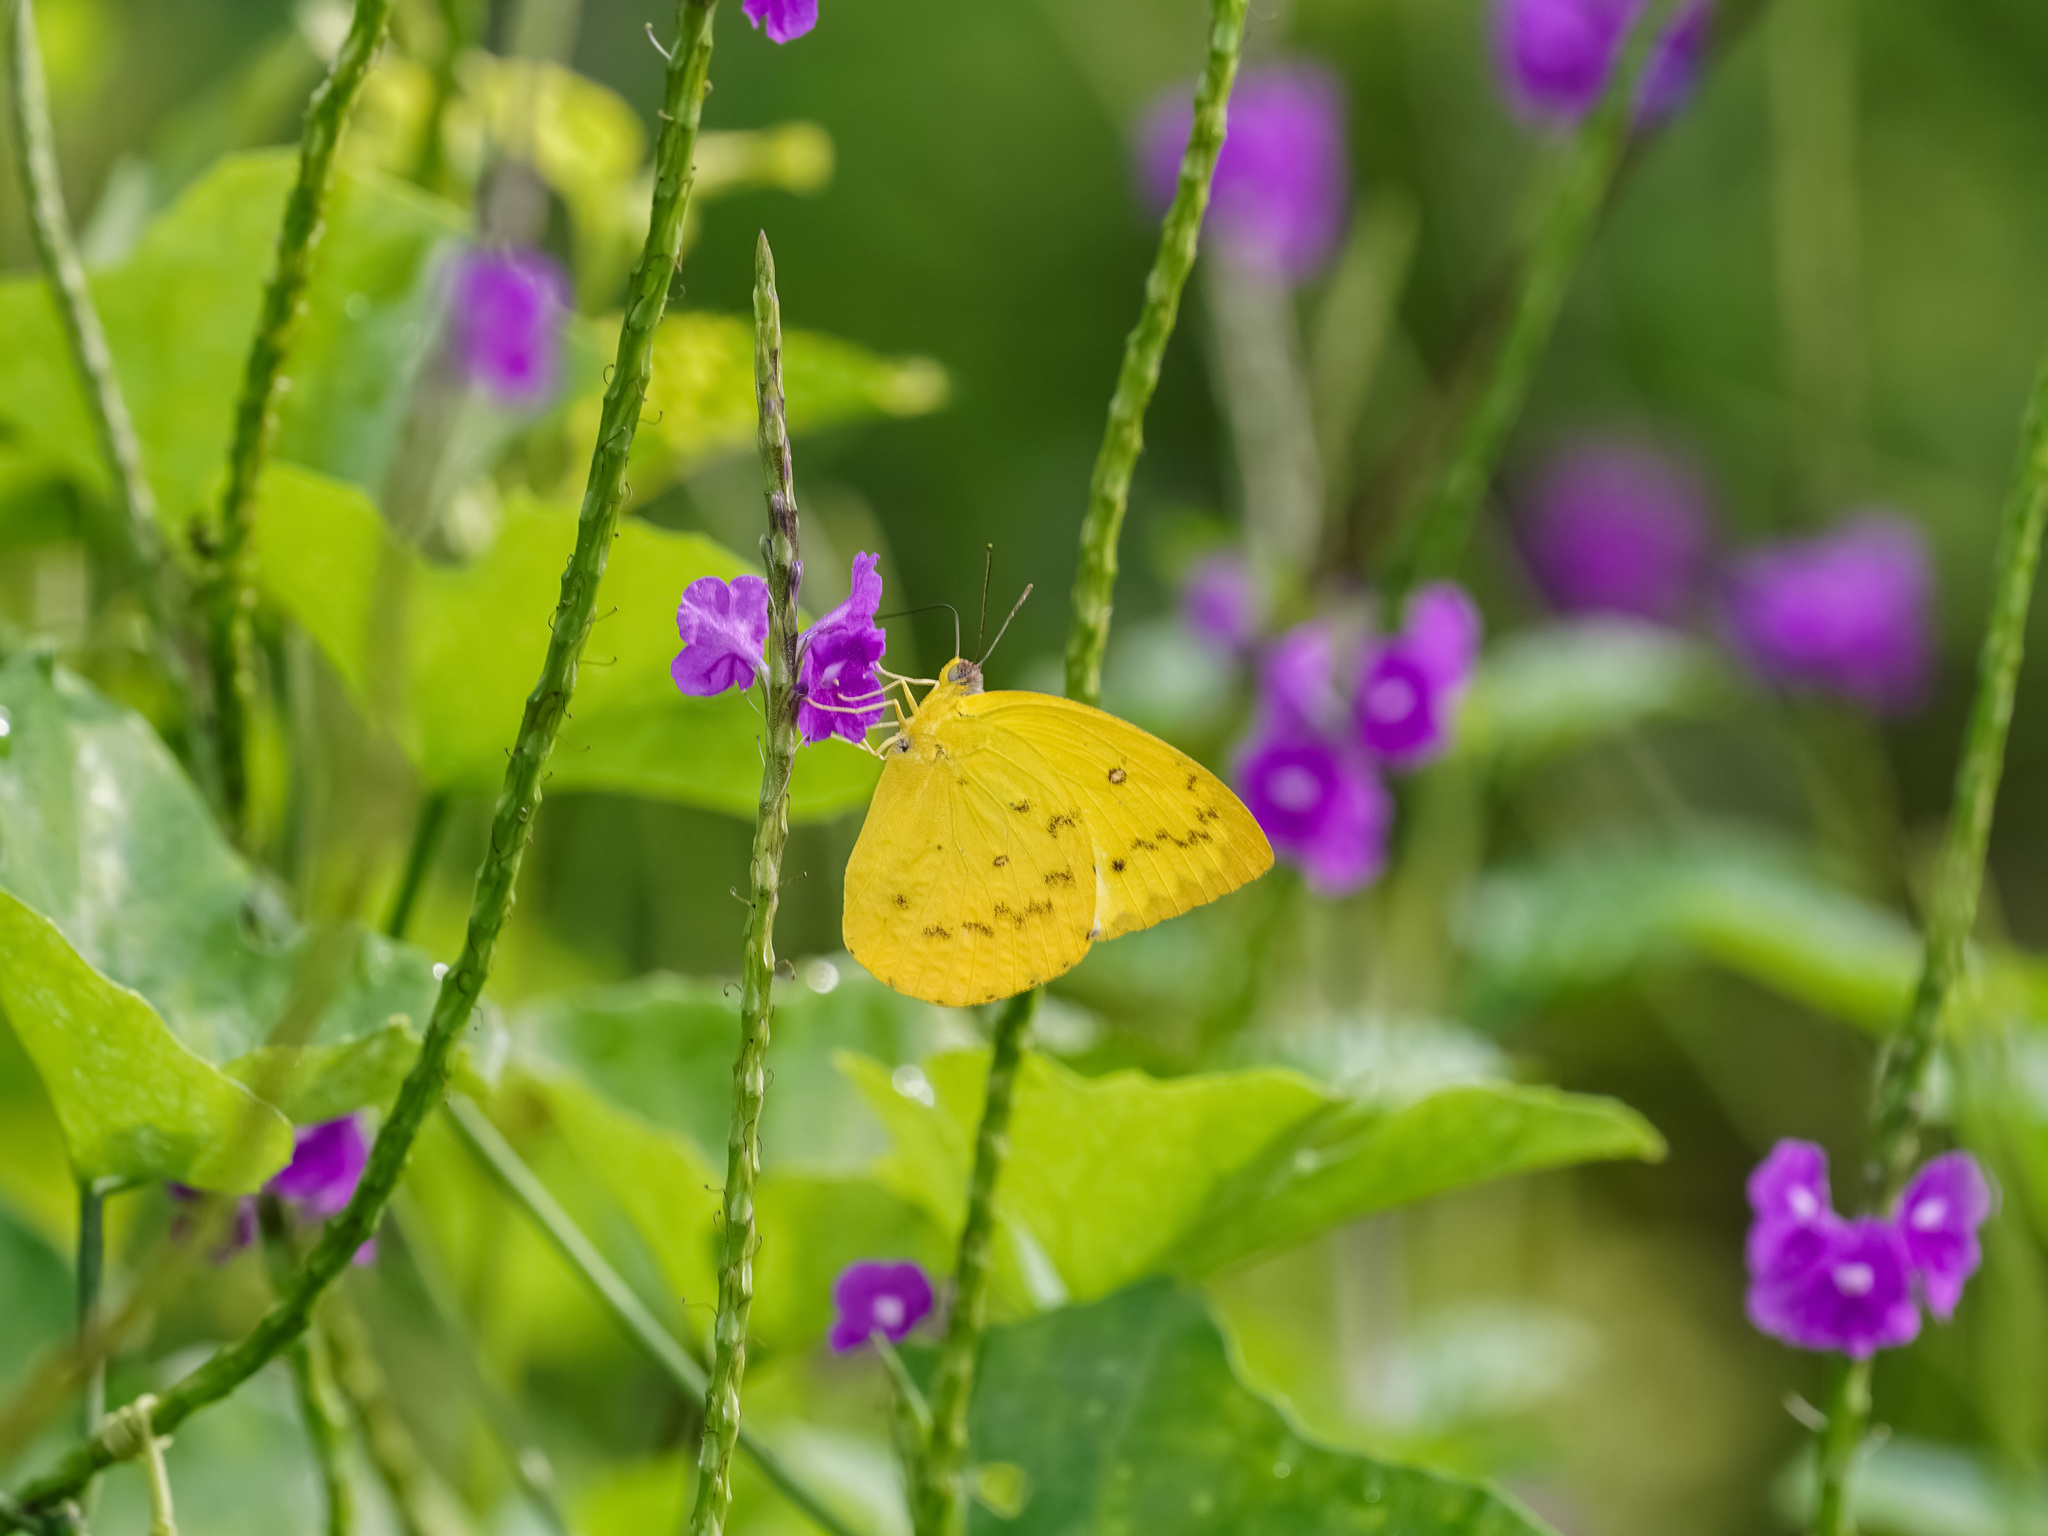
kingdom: Animalia
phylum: Arthropoda
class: Insecta
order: Lepidoptera
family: Pieridae
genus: Catopsilia
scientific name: Catopsilia scylla
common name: Orange emigrant
